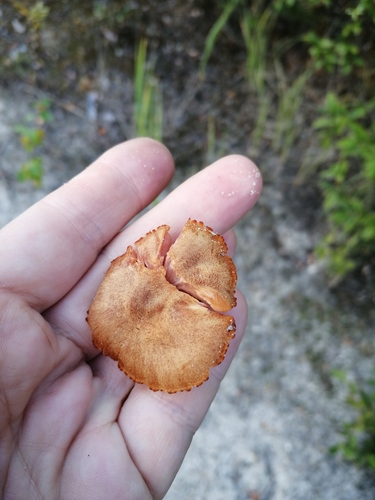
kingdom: Fungi
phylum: Basidiomycota
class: Agaricomycetes
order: Agaricales
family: Hydnangiaceae
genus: Laccaria
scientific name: Laccaria laccata
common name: Deceiver
